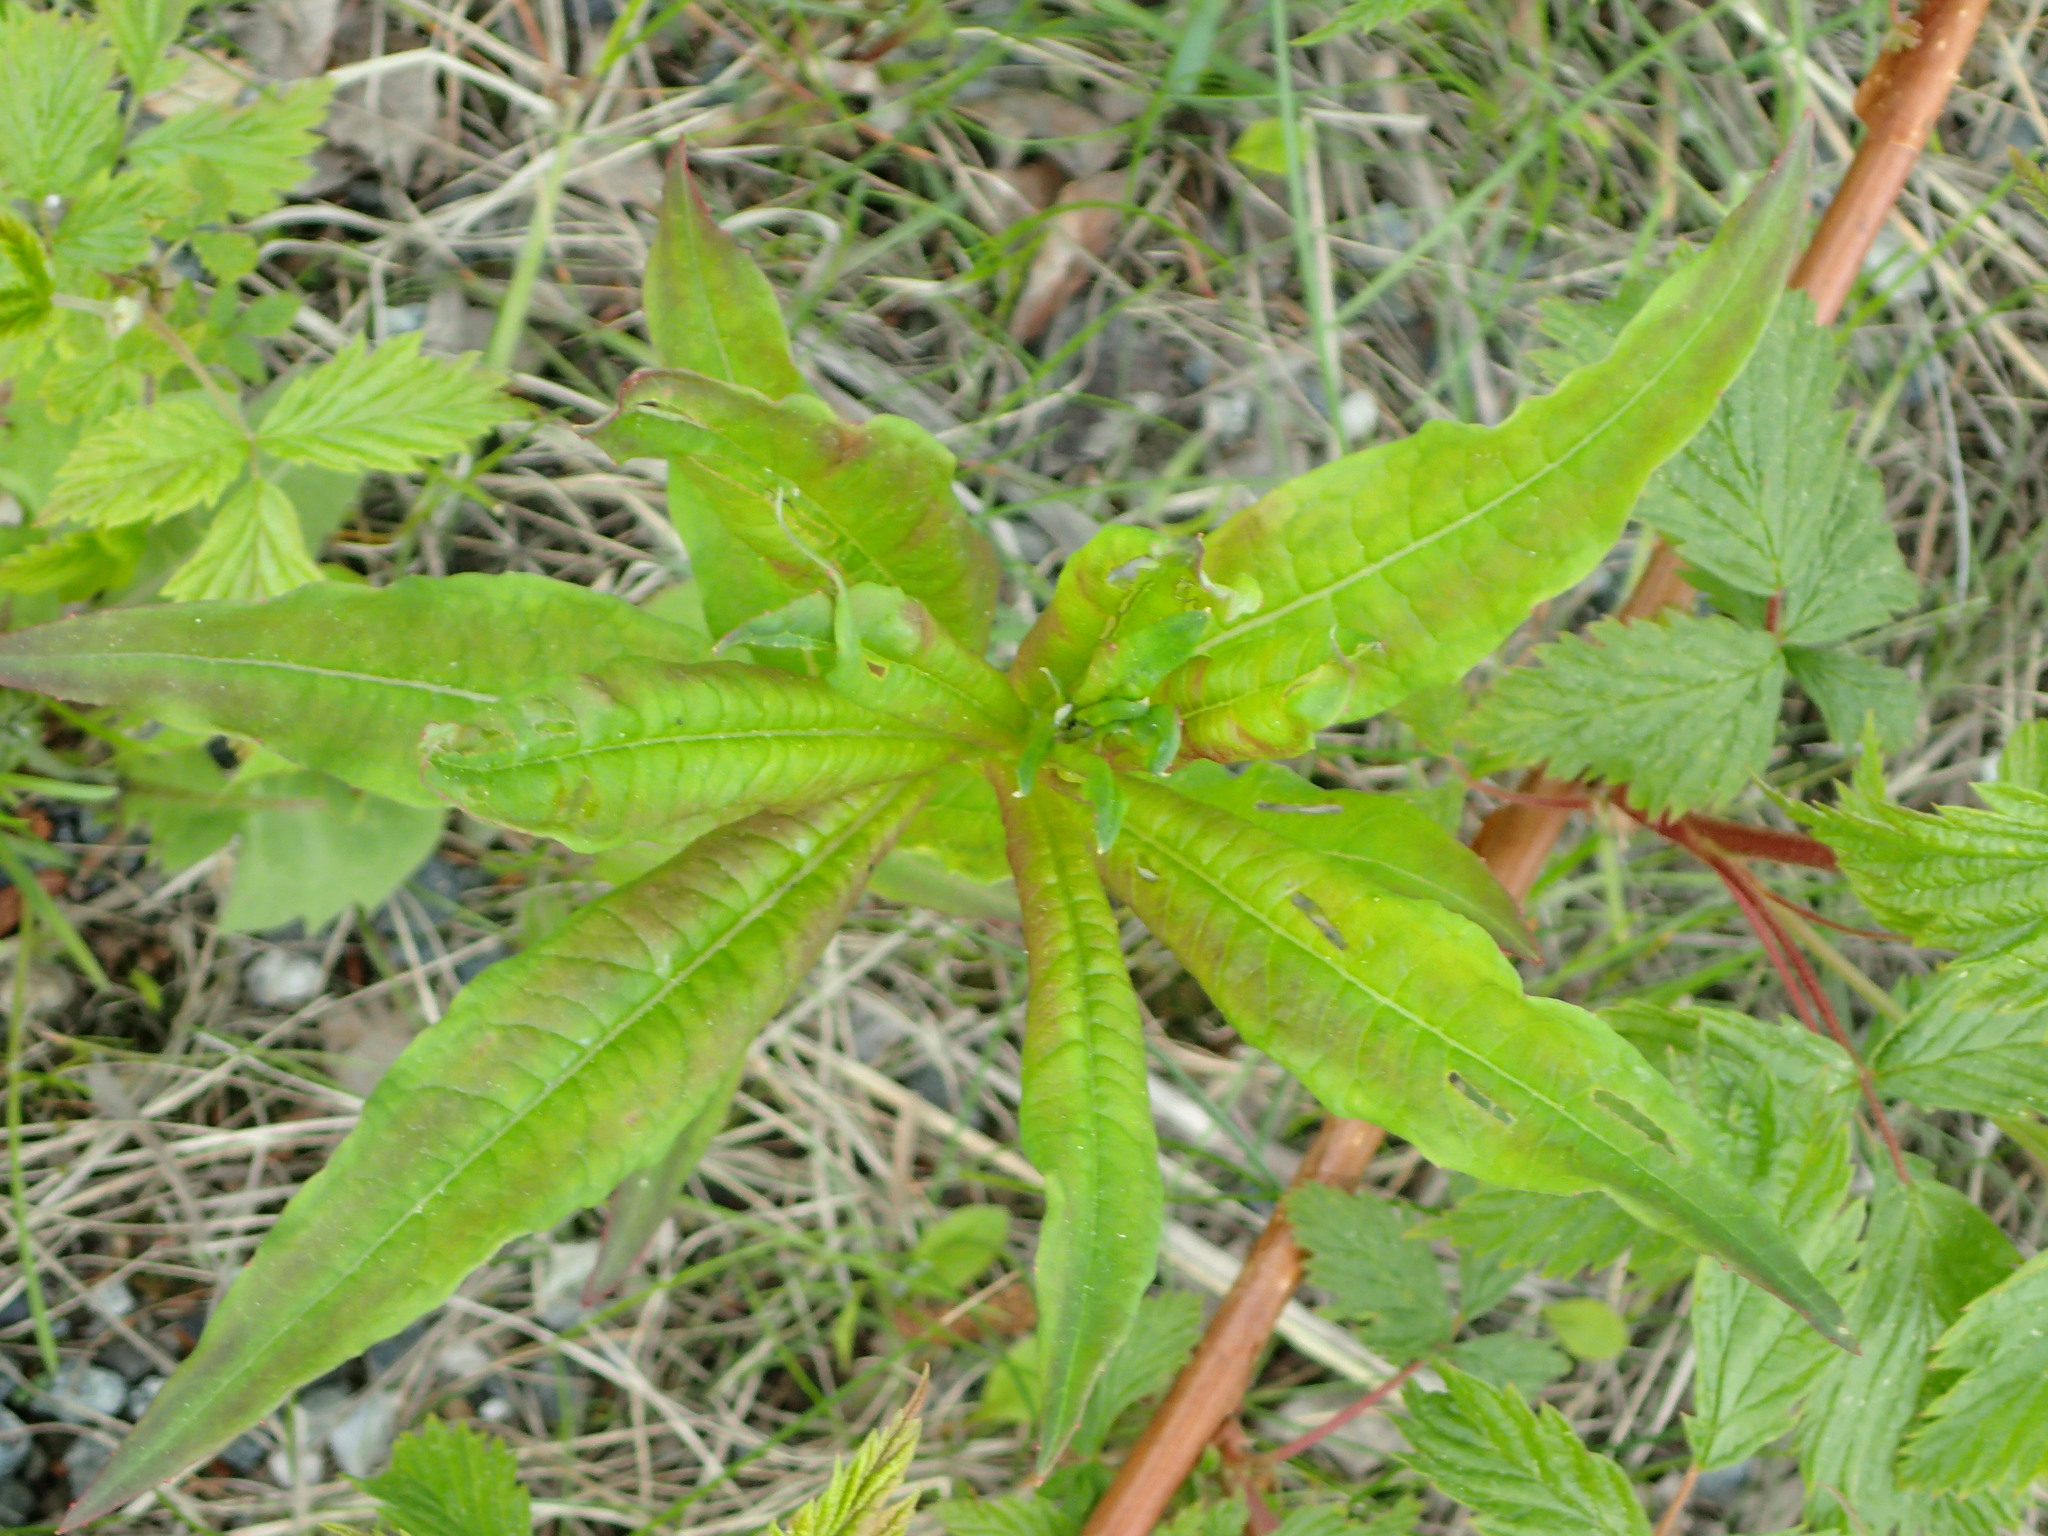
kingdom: Plantae
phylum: Tracheophyta
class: Magnoliopsida
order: Myrtales
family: Onagraceae
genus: Chamaenerion
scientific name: Chamaenerion angustifolium
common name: Fireweed
